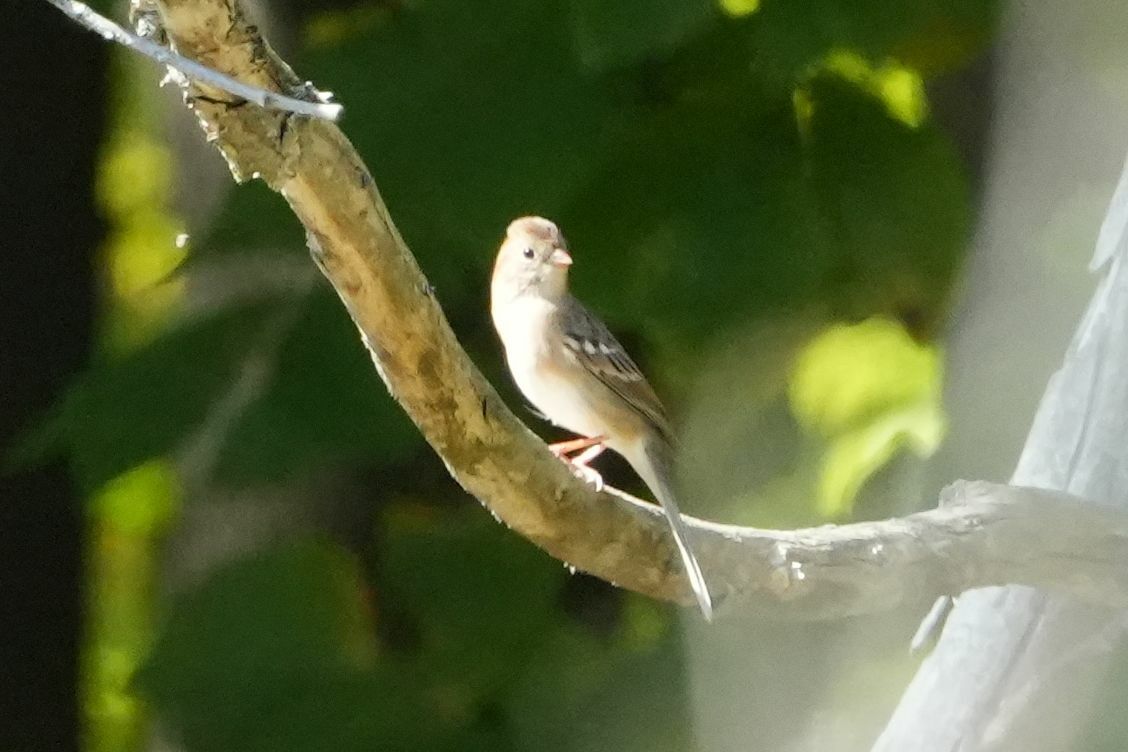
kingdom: Animalia
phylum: Chordata
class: Aves
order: Passeriformes
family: Passerellidae
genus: Zonotrichia
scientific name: Zonotrichia leucophrys
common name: White-crowned sparrow
